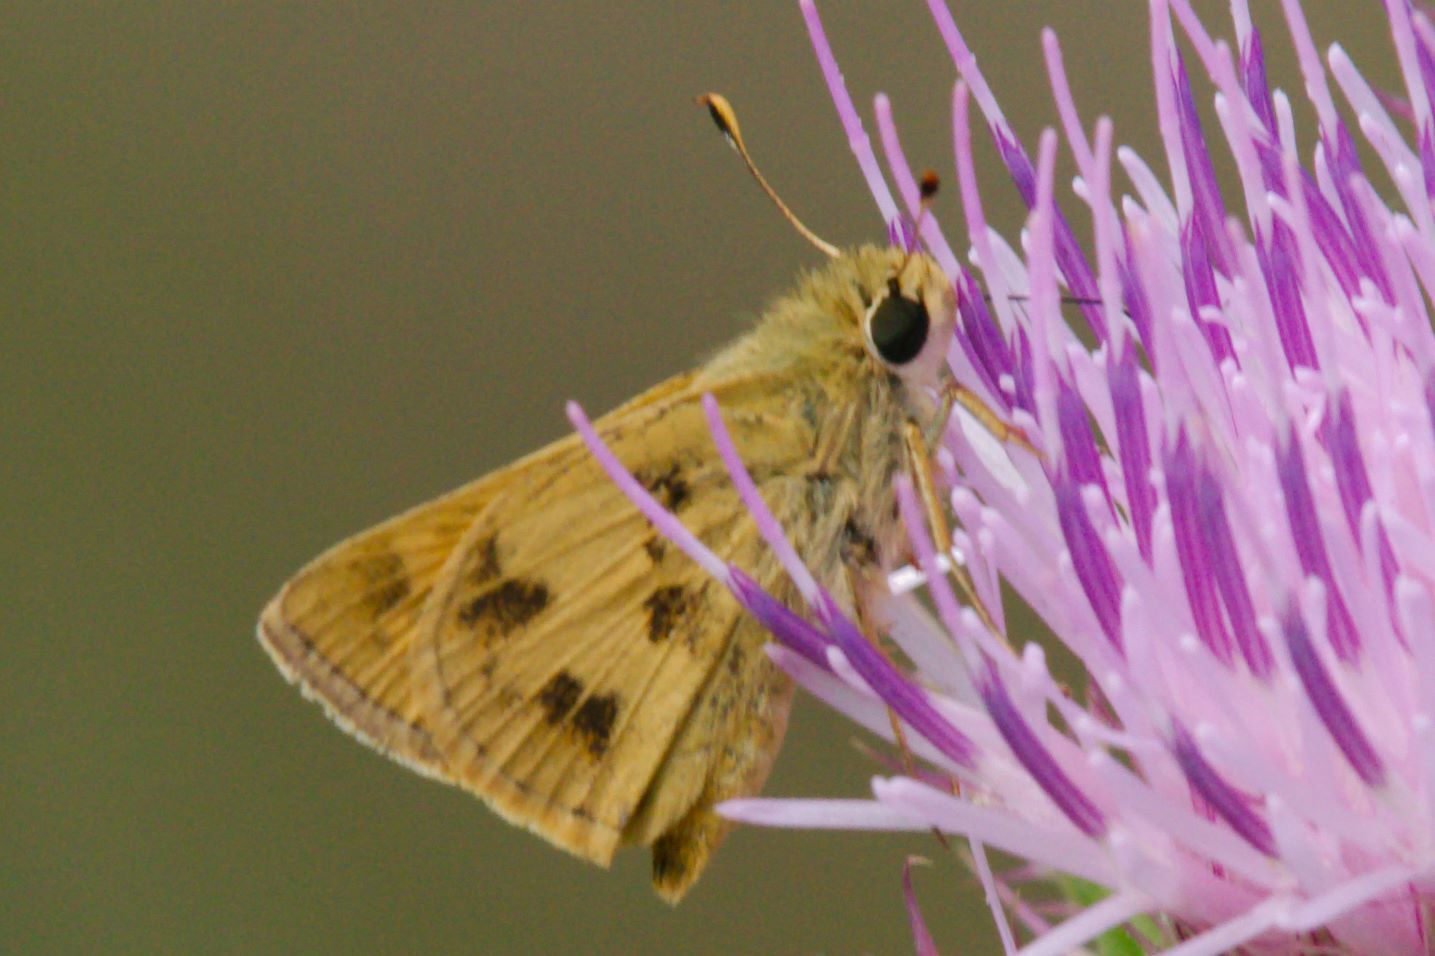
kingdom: Animalia
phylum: Arthropoda
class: Insecta
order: Lepidoptera
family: Hesperiidae
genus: Polites
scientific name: Polites vibex
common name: Whirlabout
